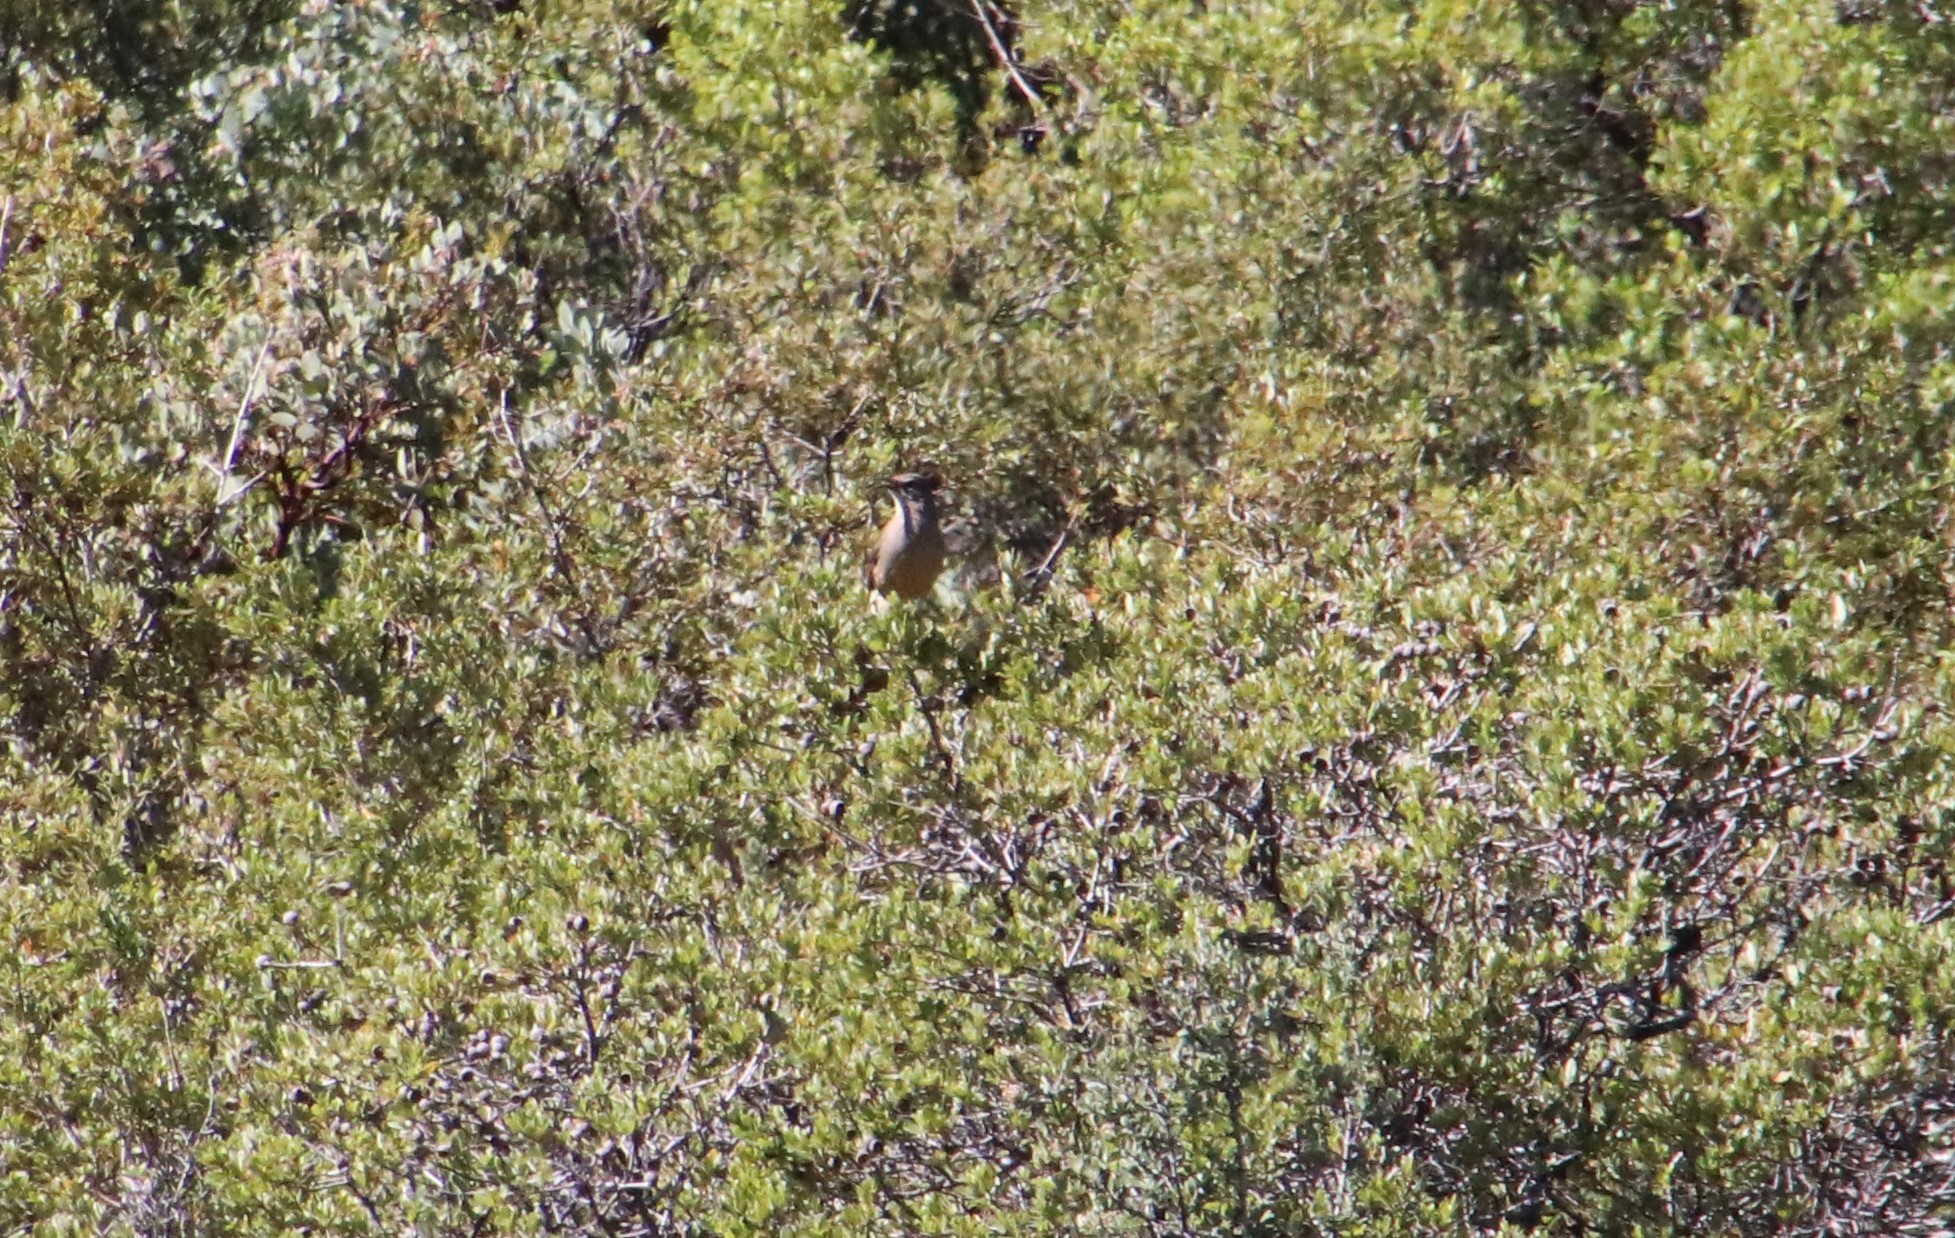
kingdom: Animalia
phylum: Chordata
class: Aves
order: Passeriformes
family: Mimidae
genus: Toxostoma
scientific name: Toxostoma redivivum
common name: California thrasher
